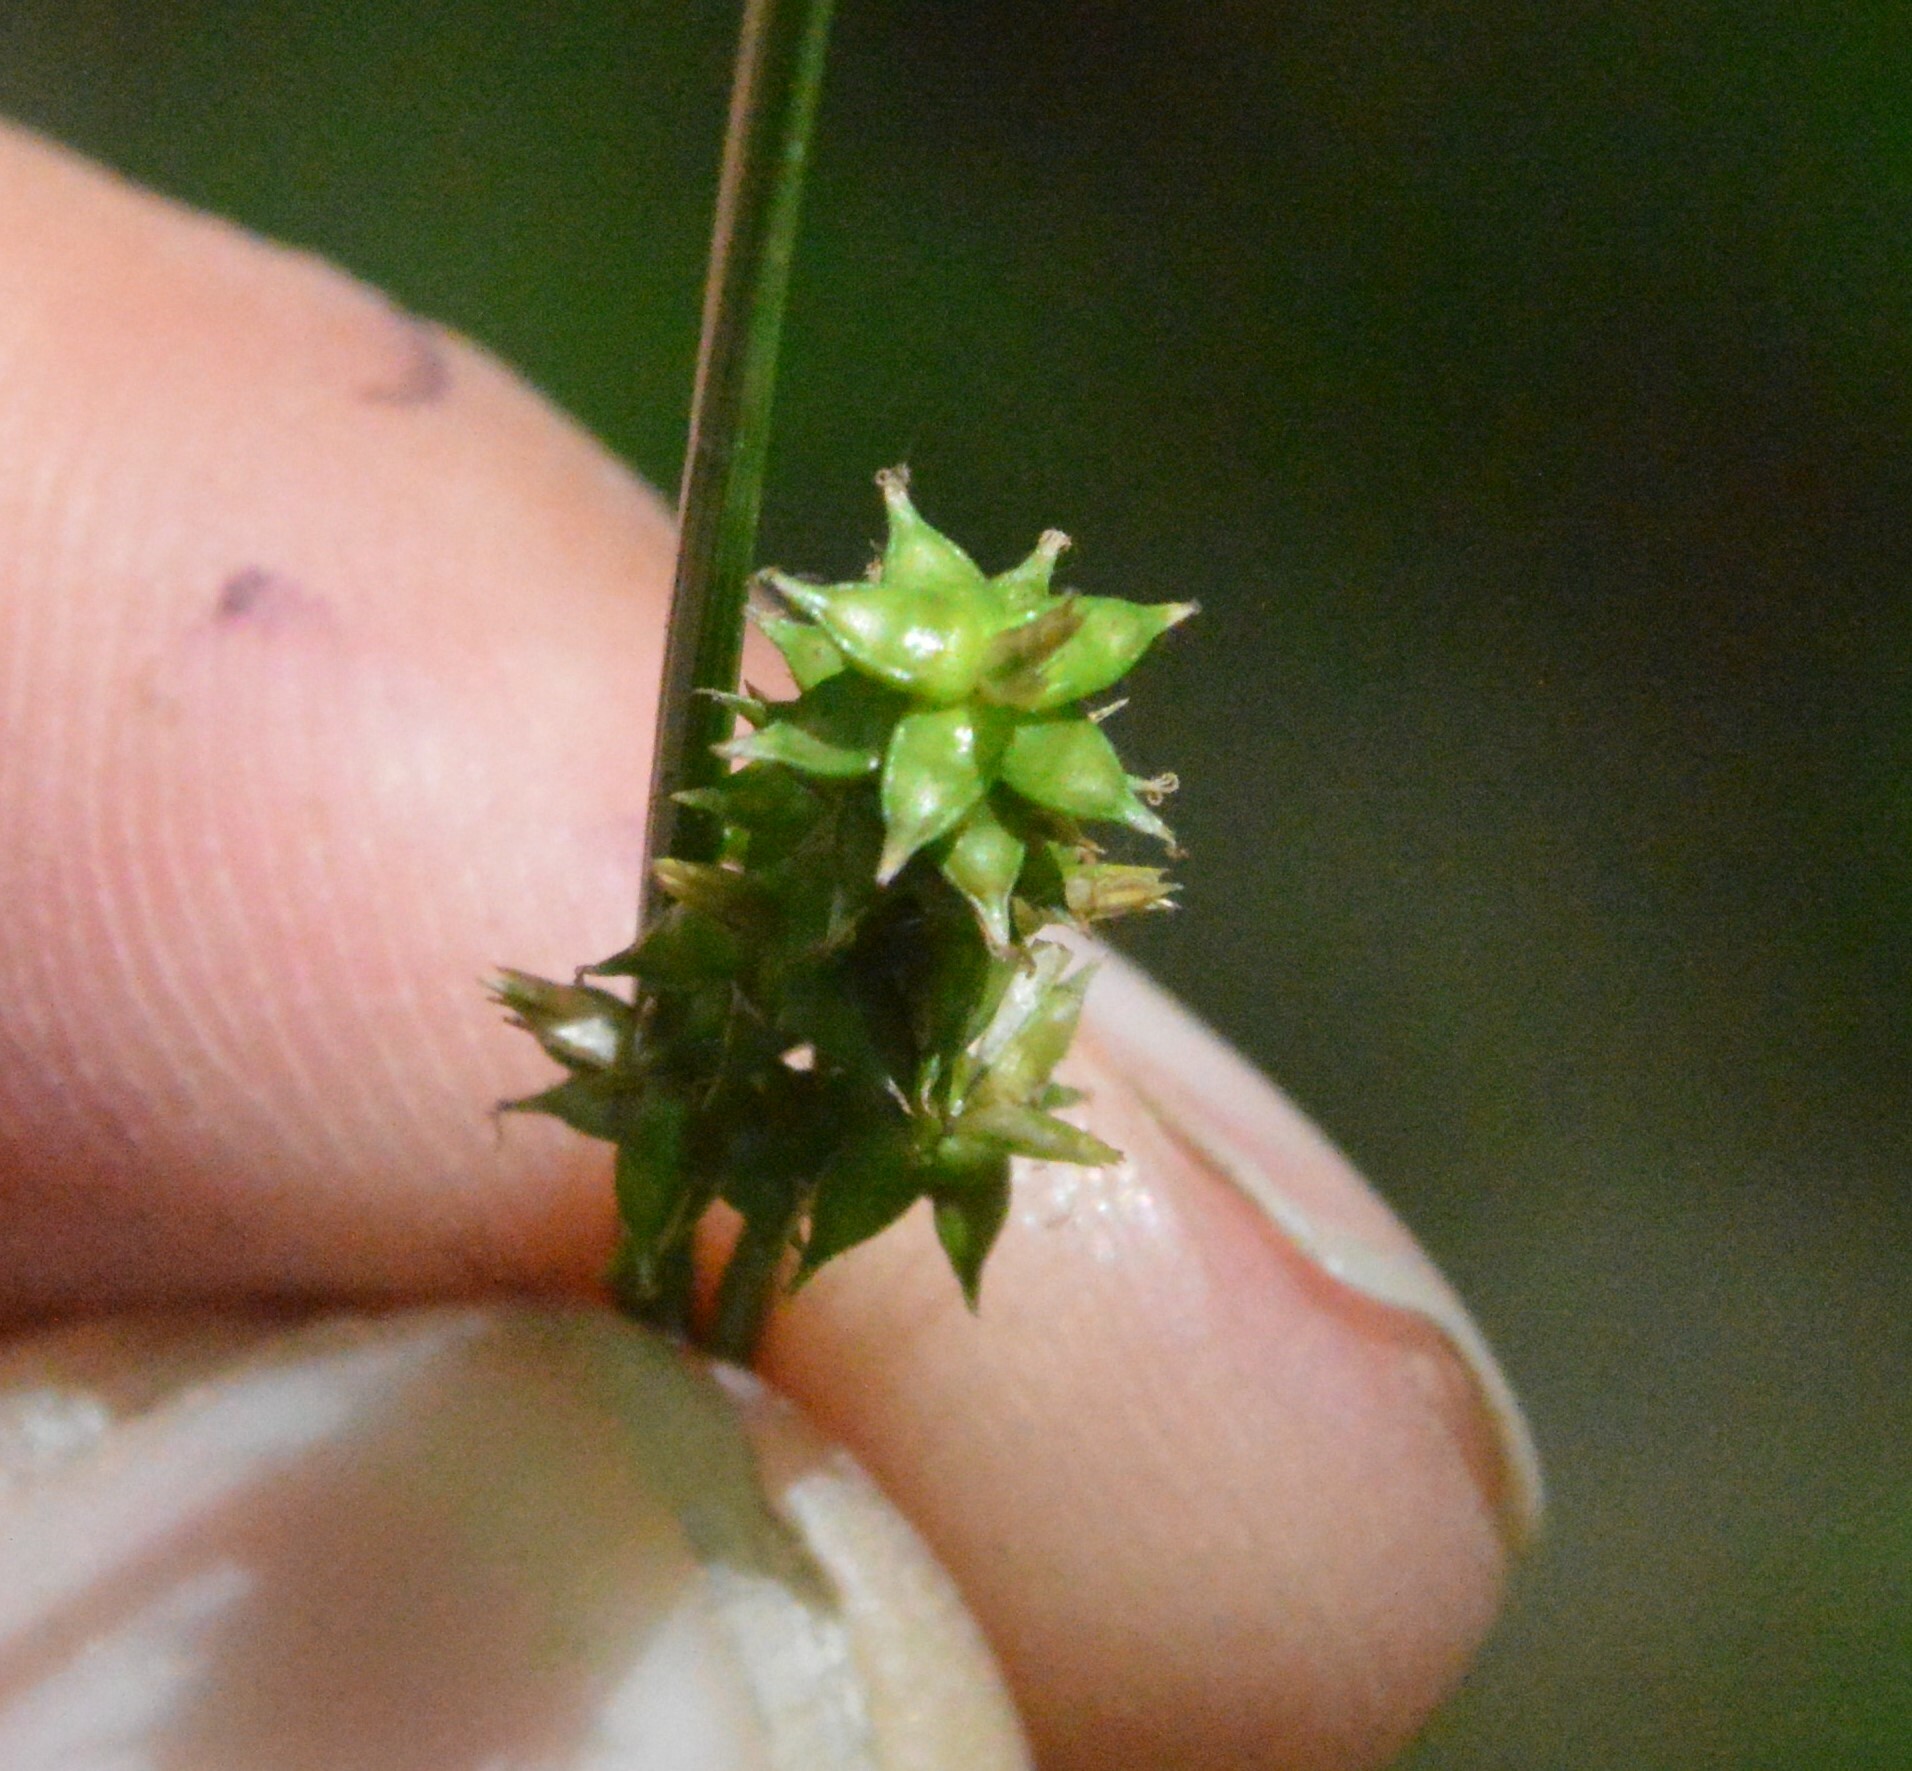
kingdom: Plantae
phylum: Tracheophyta
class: Liliopsida
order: Poales
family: Cyperaceae
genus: Carex
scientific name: Carex retroflexa
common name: Reflexed sedge
